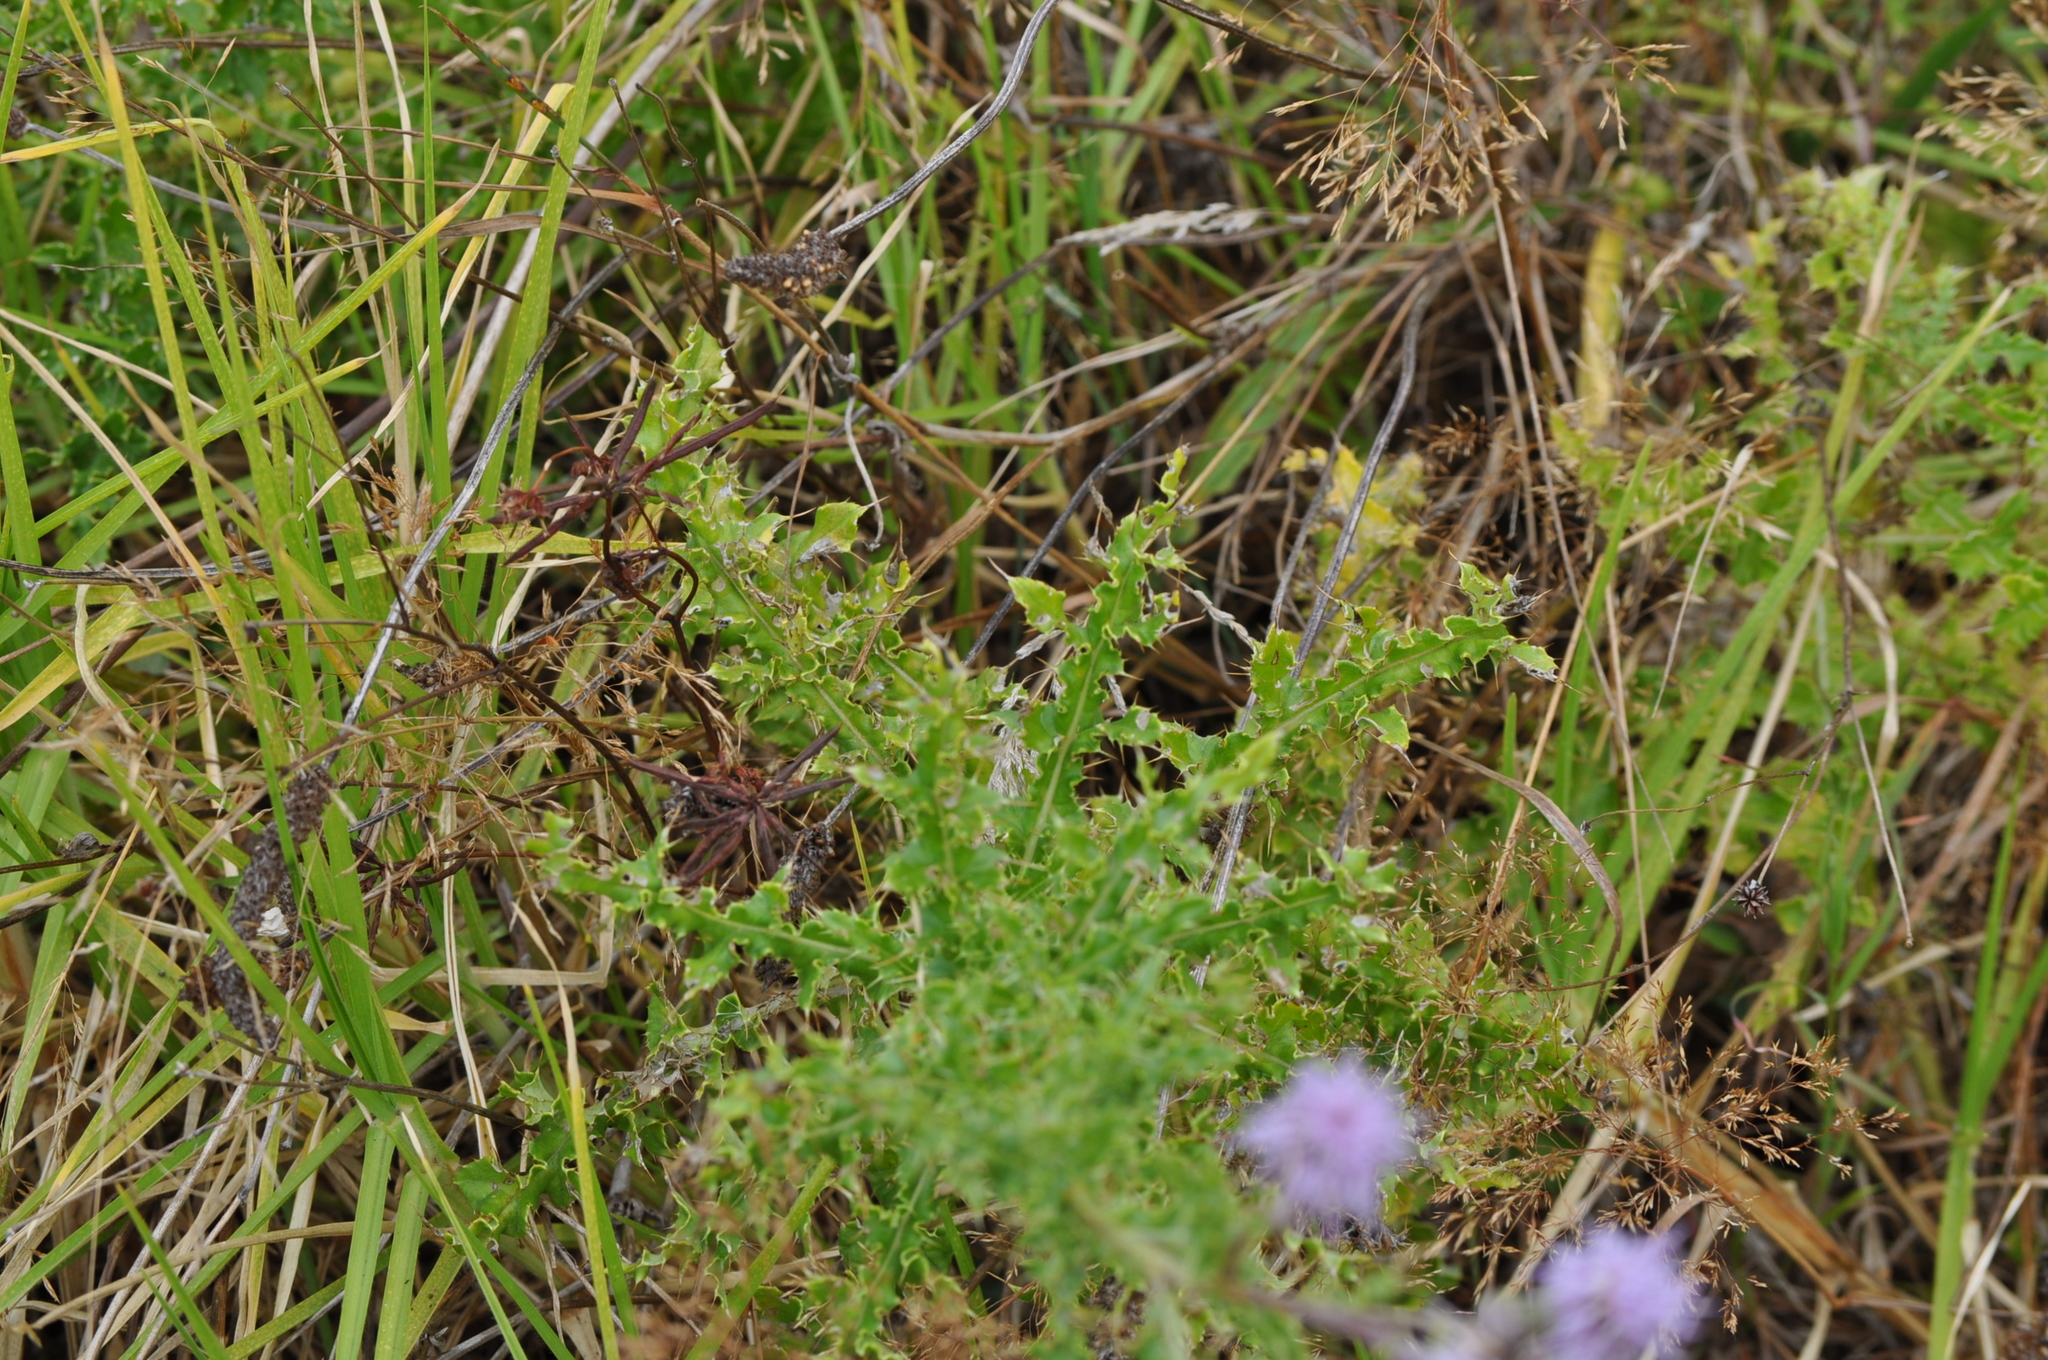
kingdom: Plantae
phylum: Tracheophyta
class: Magnoliopsida
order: Asterales
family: Asteraceae
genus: Cirsium
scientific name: Cirsium arvense
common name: Creeping thistle
